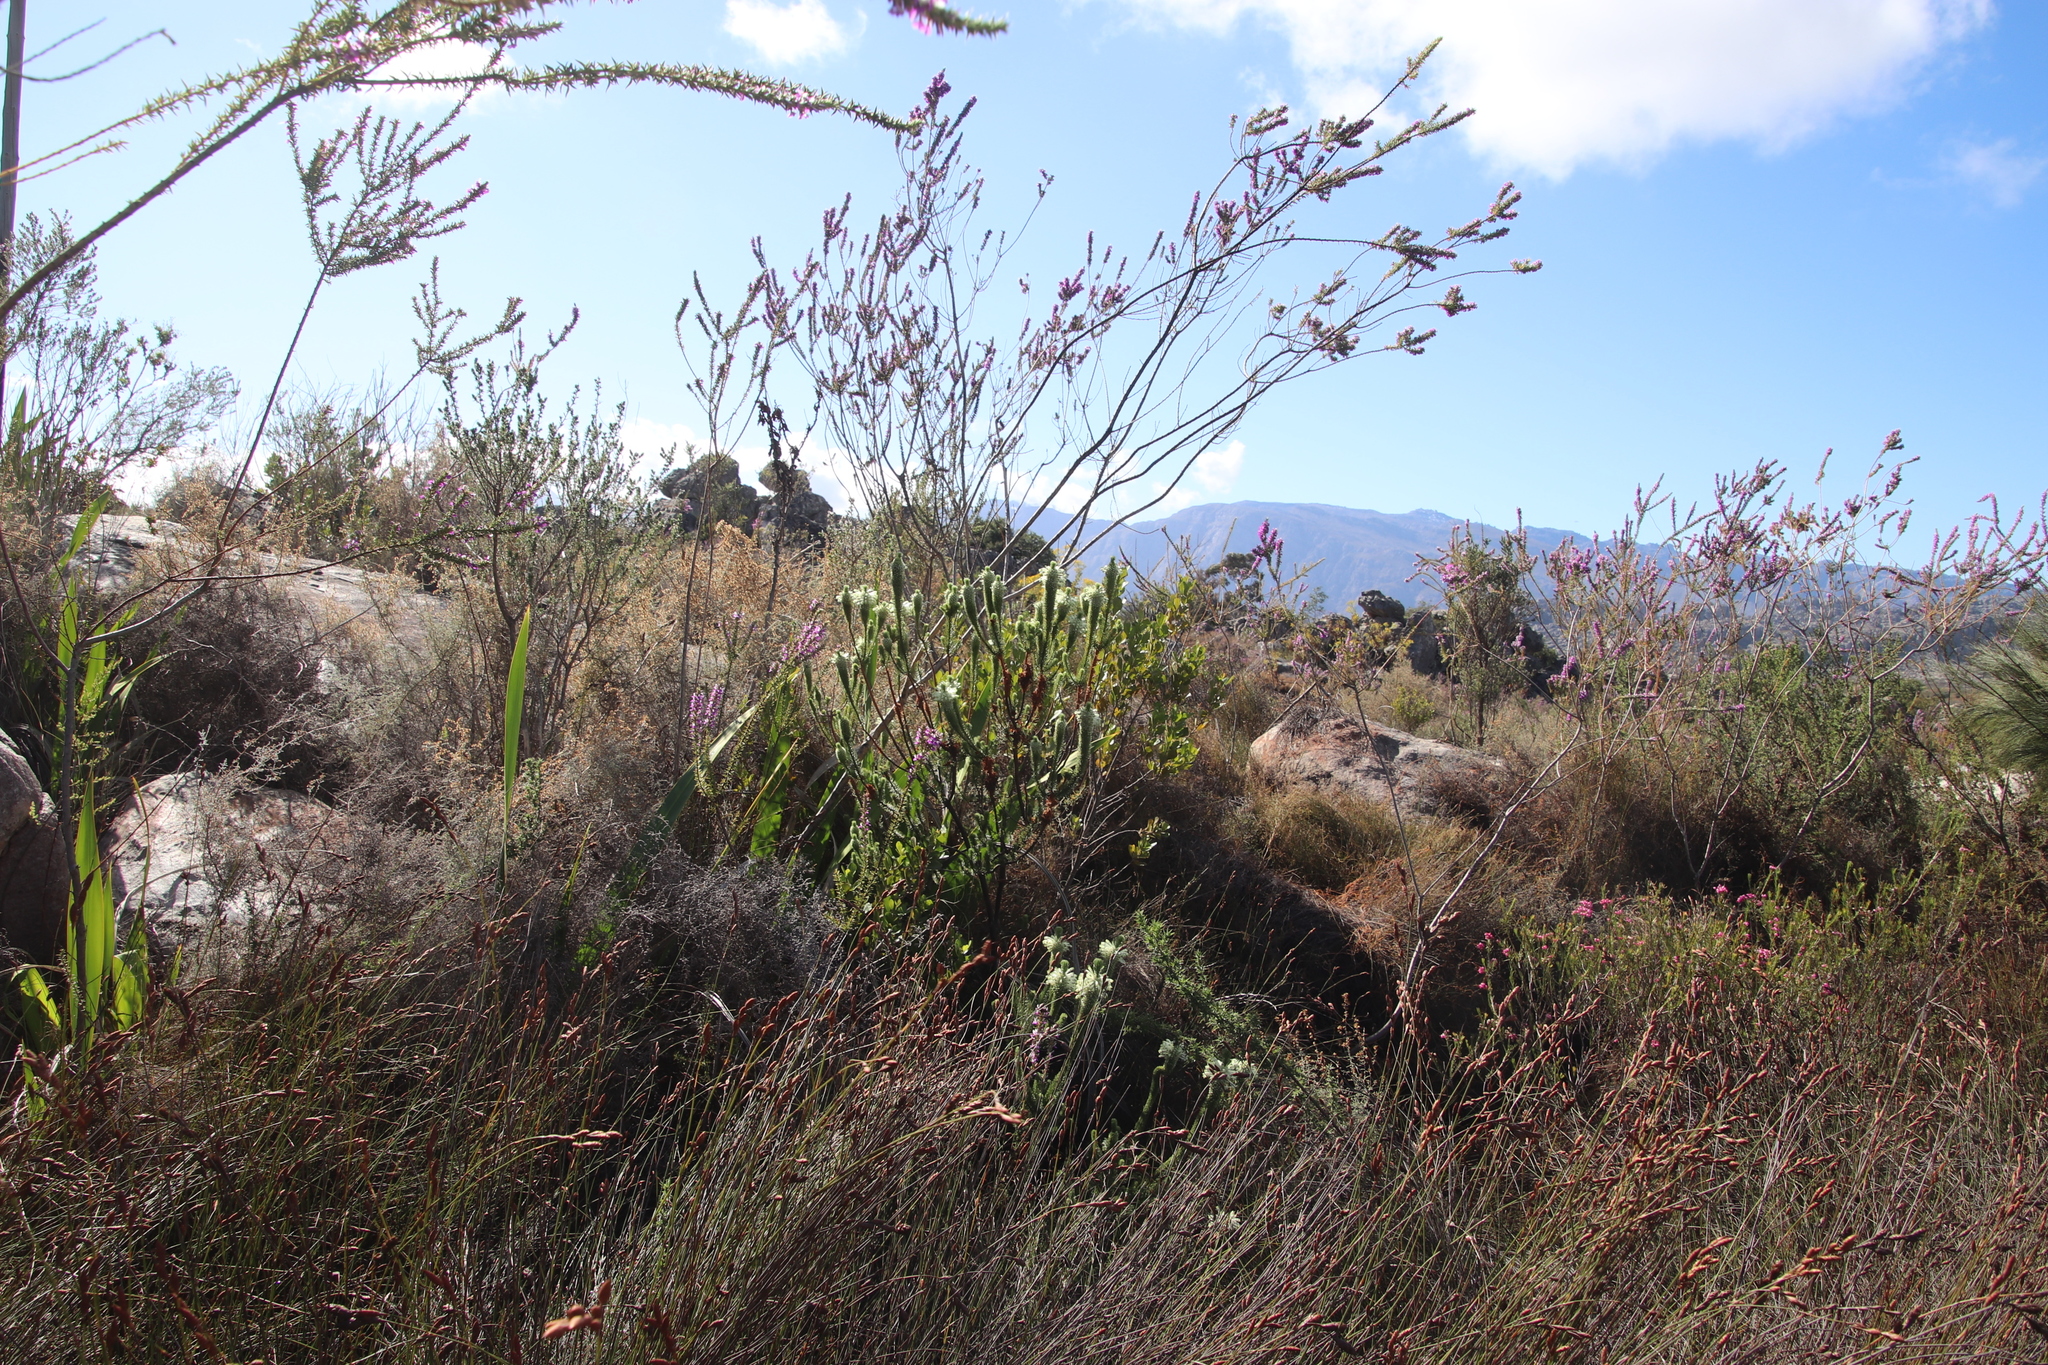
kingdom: Plantae
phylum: Tracheophyta
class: Magnoliopsida
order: Ericales
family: Ericaceae
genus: Erica
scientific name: Erica sessiliflora
